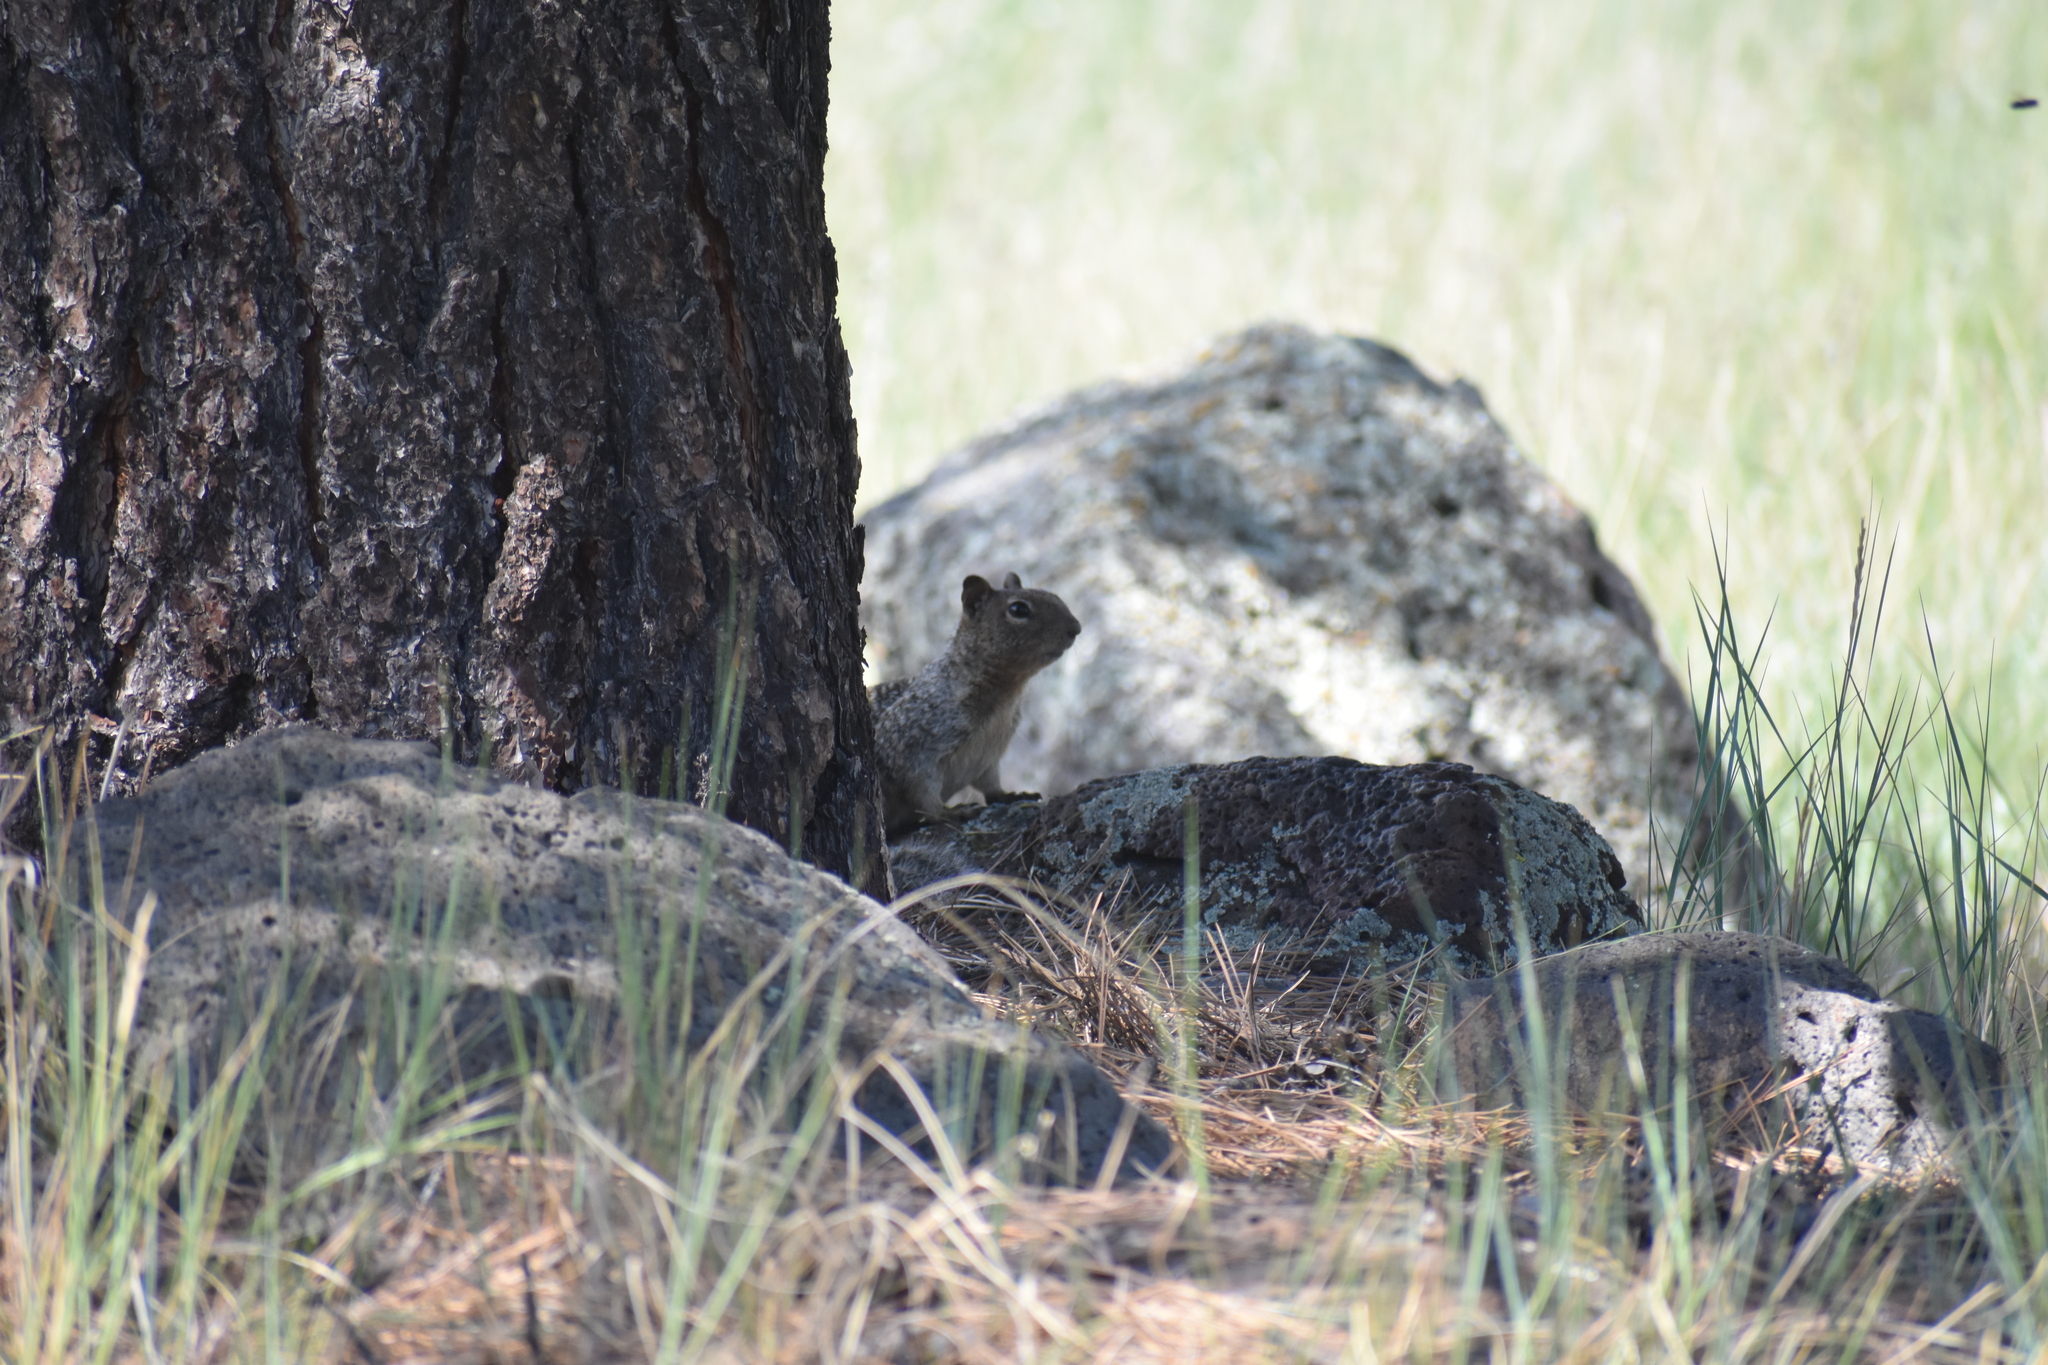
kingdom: Animalia
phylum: Chordata
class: Mammalia
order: Rodentia
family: Sciuridae
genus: Otospermophilus
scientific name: Otospermophilus variegatus
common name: Rock squirrel
